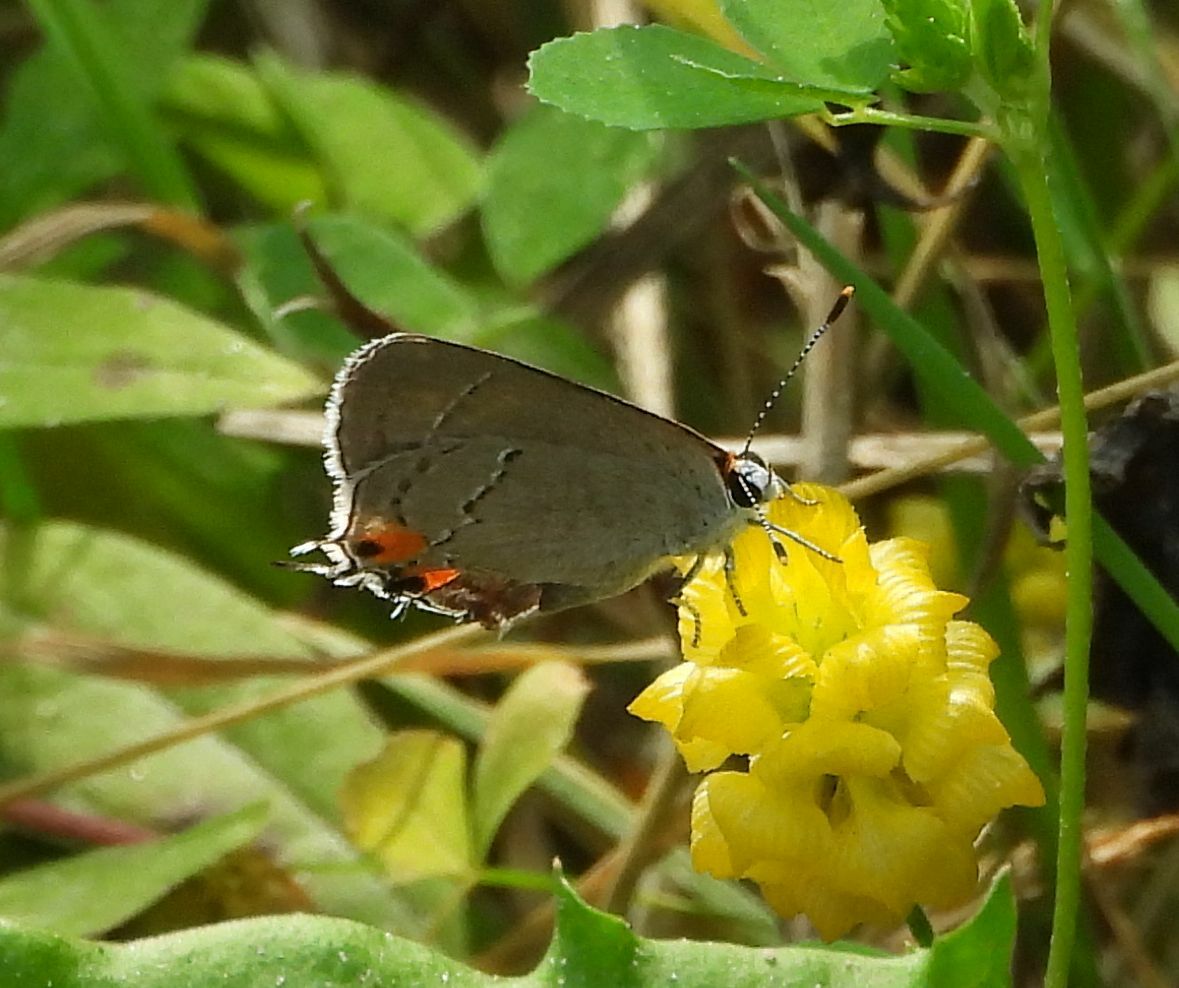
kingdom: Animalia
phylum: Arthropoda
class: Insecta
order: Lepidoptera
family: Lycaenidae
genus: Strymon
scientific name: Strymon melinus
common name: Gray hairstreak
